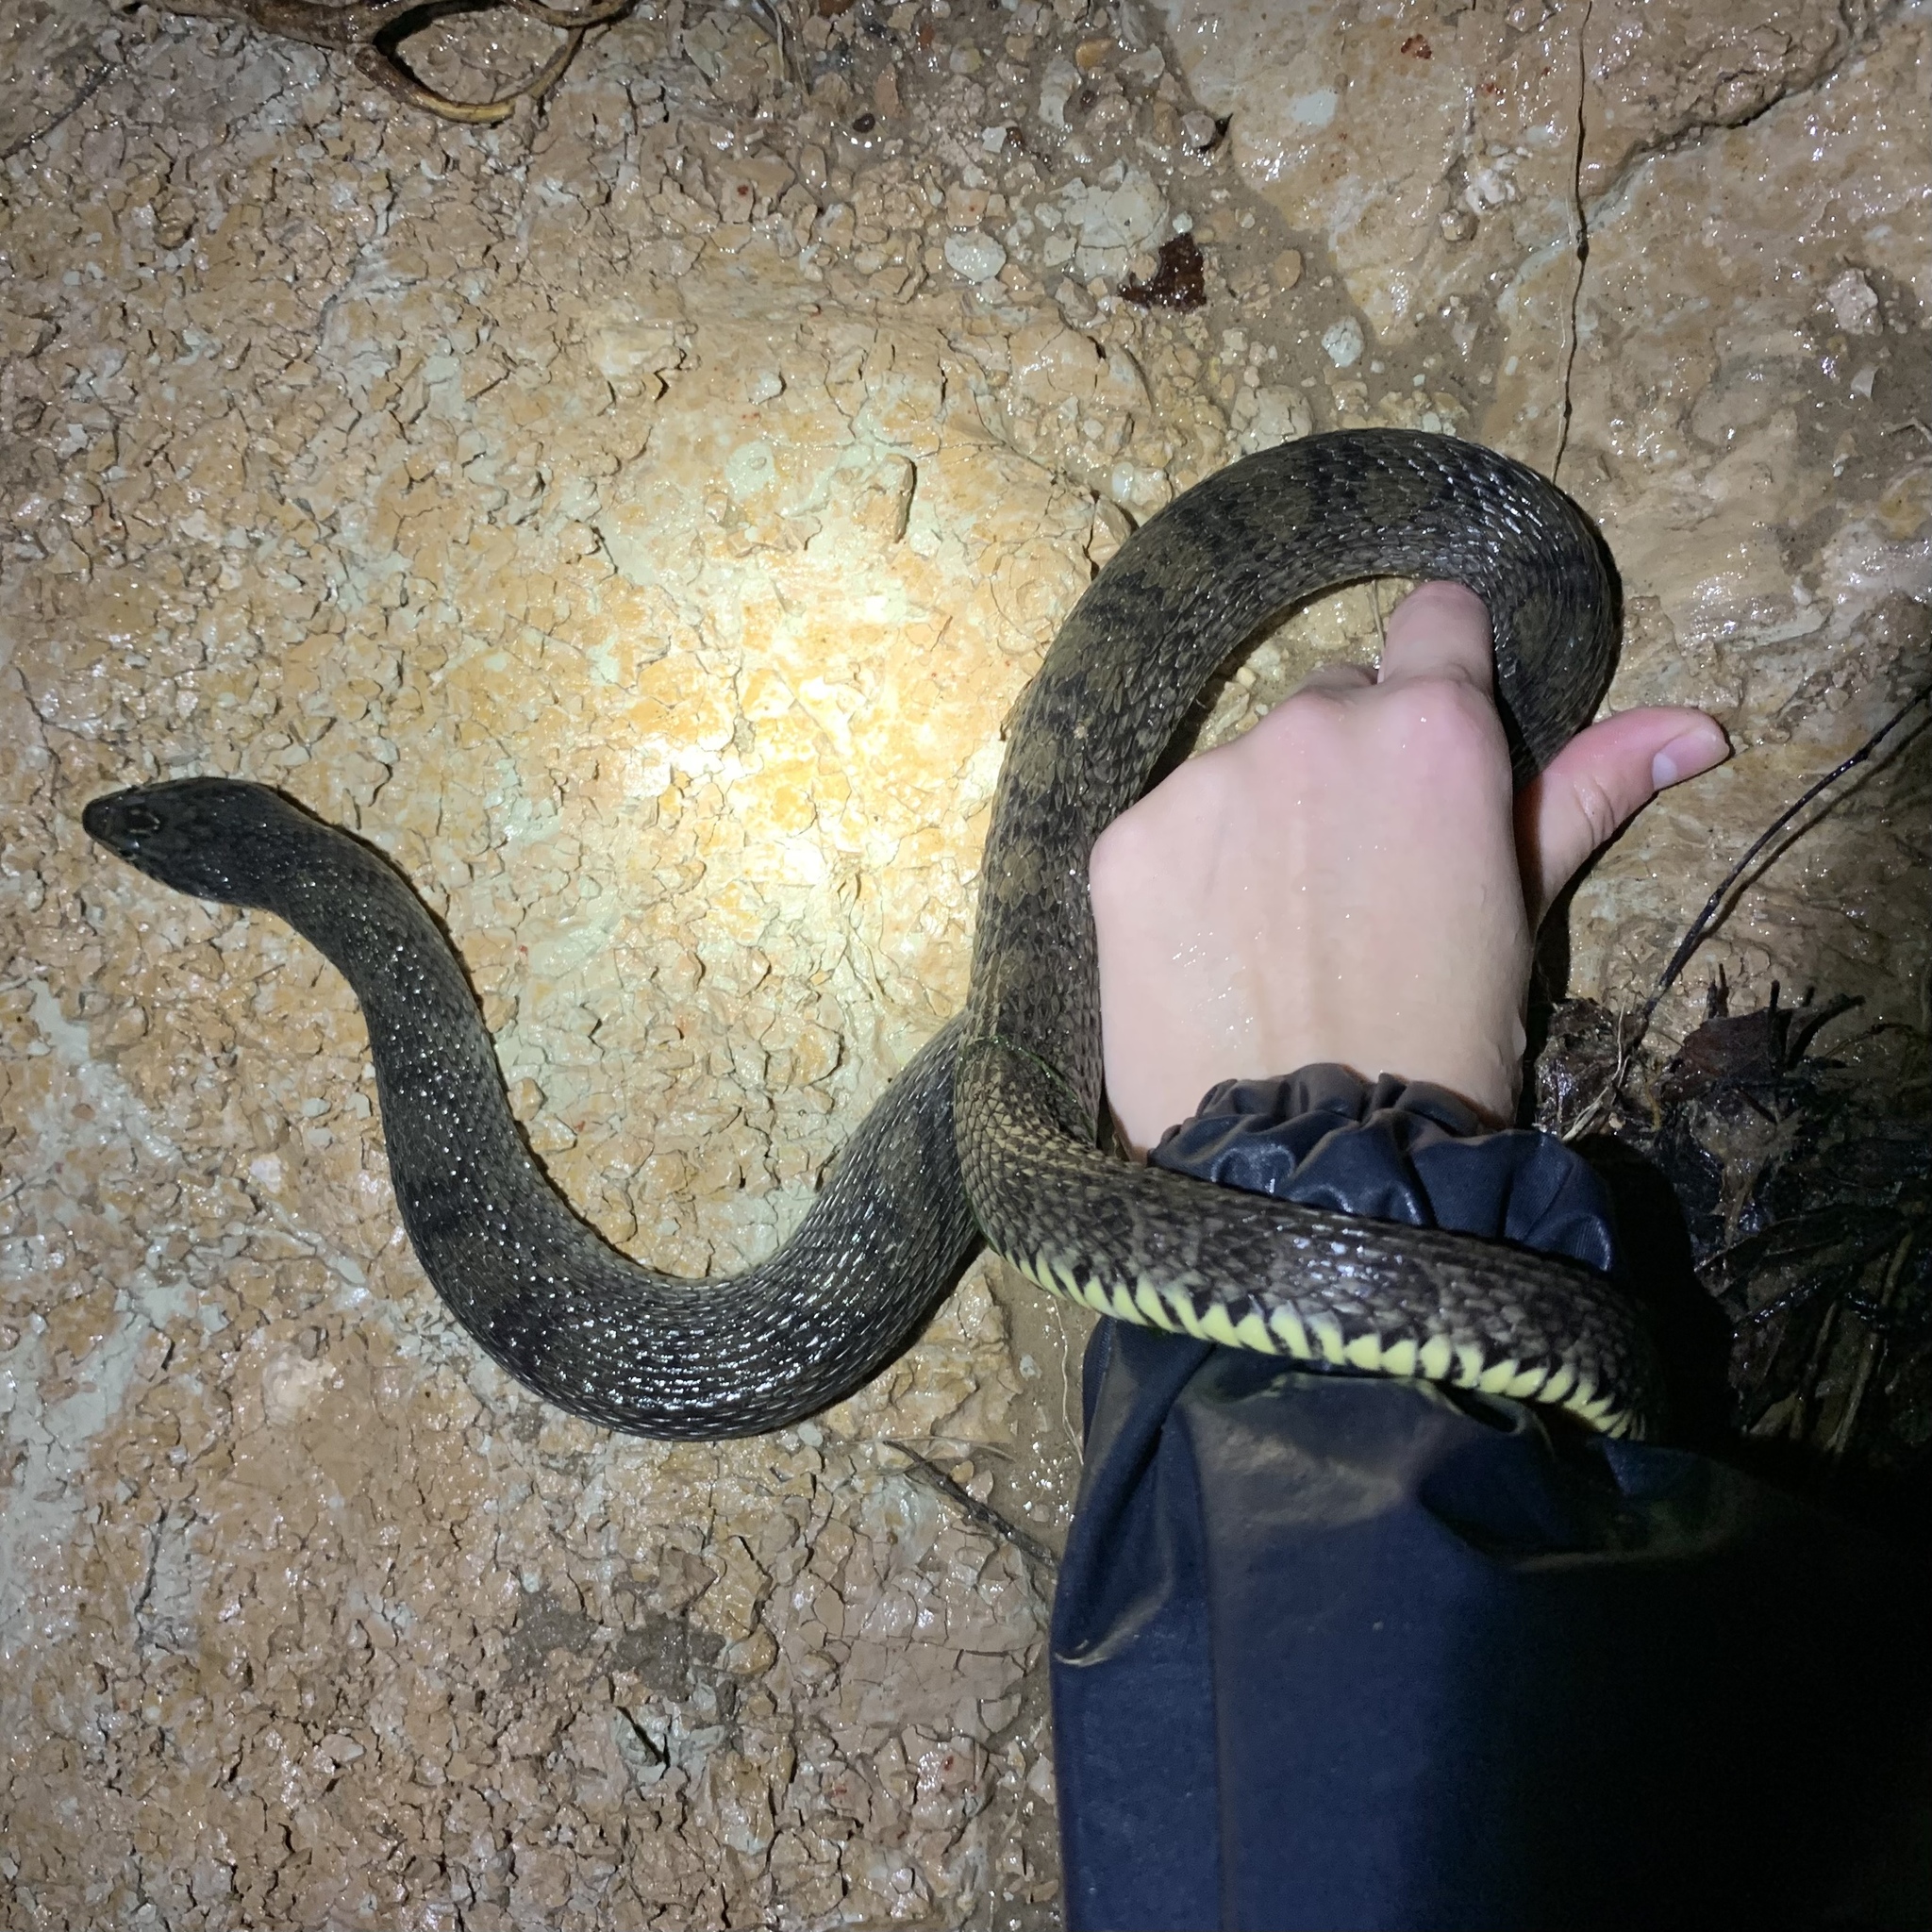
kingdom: Animalia
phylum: Chordata
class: Squamata
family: Colubridae
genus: Nerodia
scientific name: Nerodia erythrogaster
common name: Plainbelly water snake
